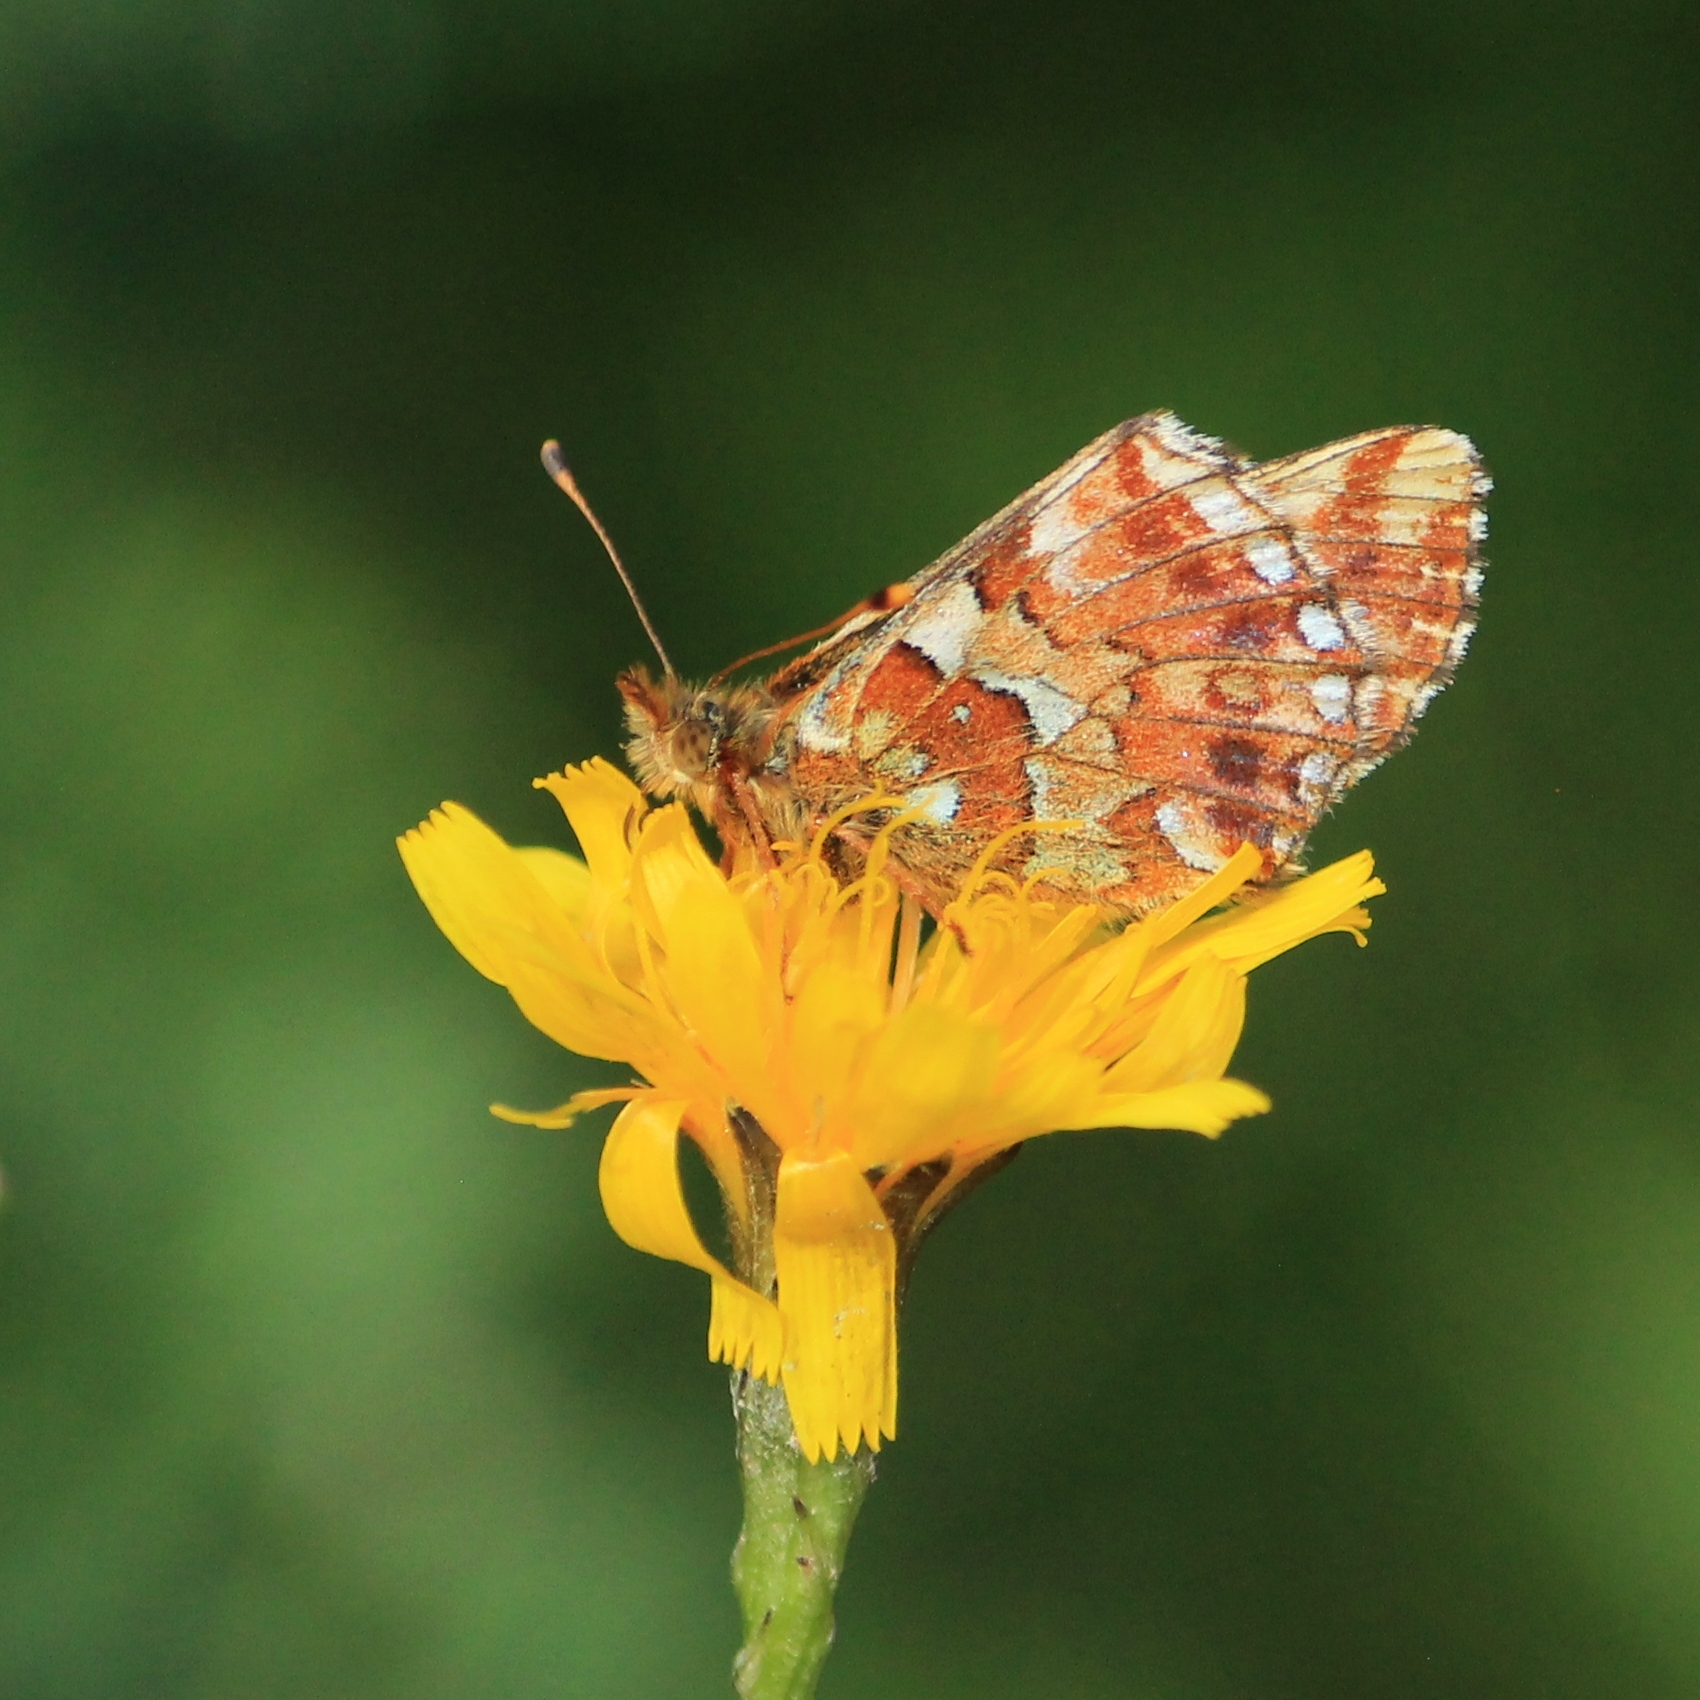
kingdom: Animalia
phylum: Arthropoda
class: Insecta
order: Lepidoptera
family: Nymphalidae
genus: Boloria
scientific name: Boloria aquilonaris
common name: Cranberry fritillary
